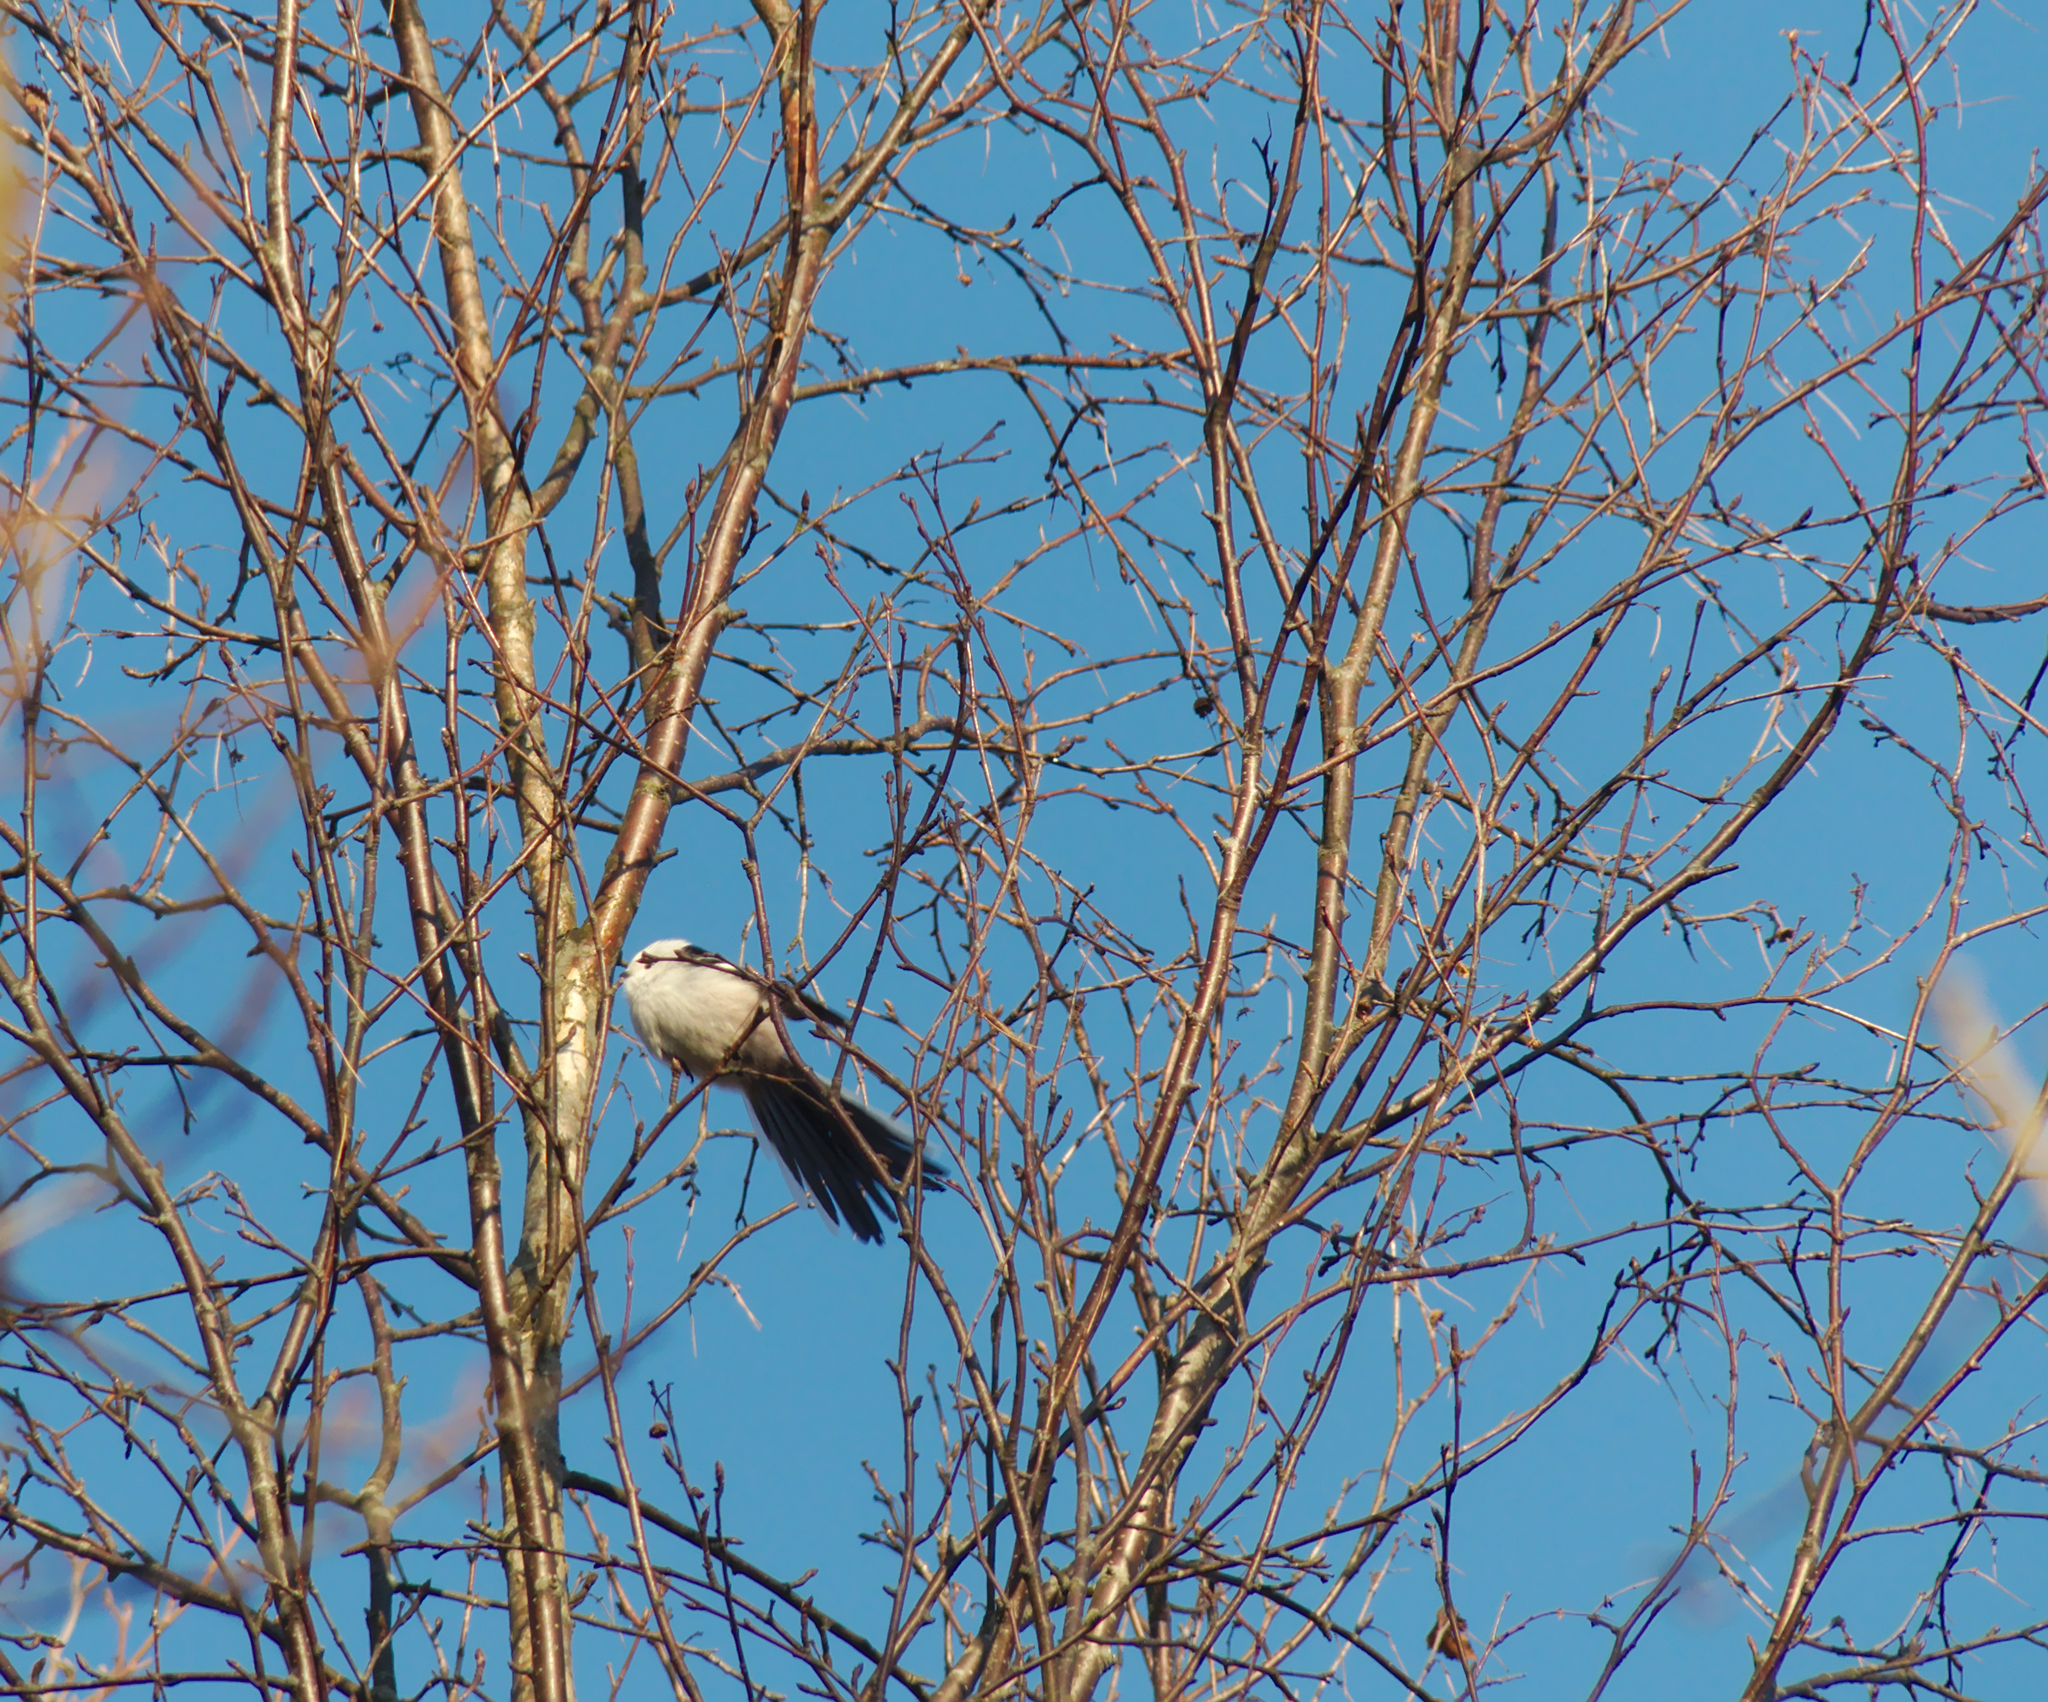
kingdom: Animalia
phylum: Chordata
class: Aves
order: Passeriformes
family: Aegithalidae
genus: Aegithalos
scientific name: Aegithalos caudatus
